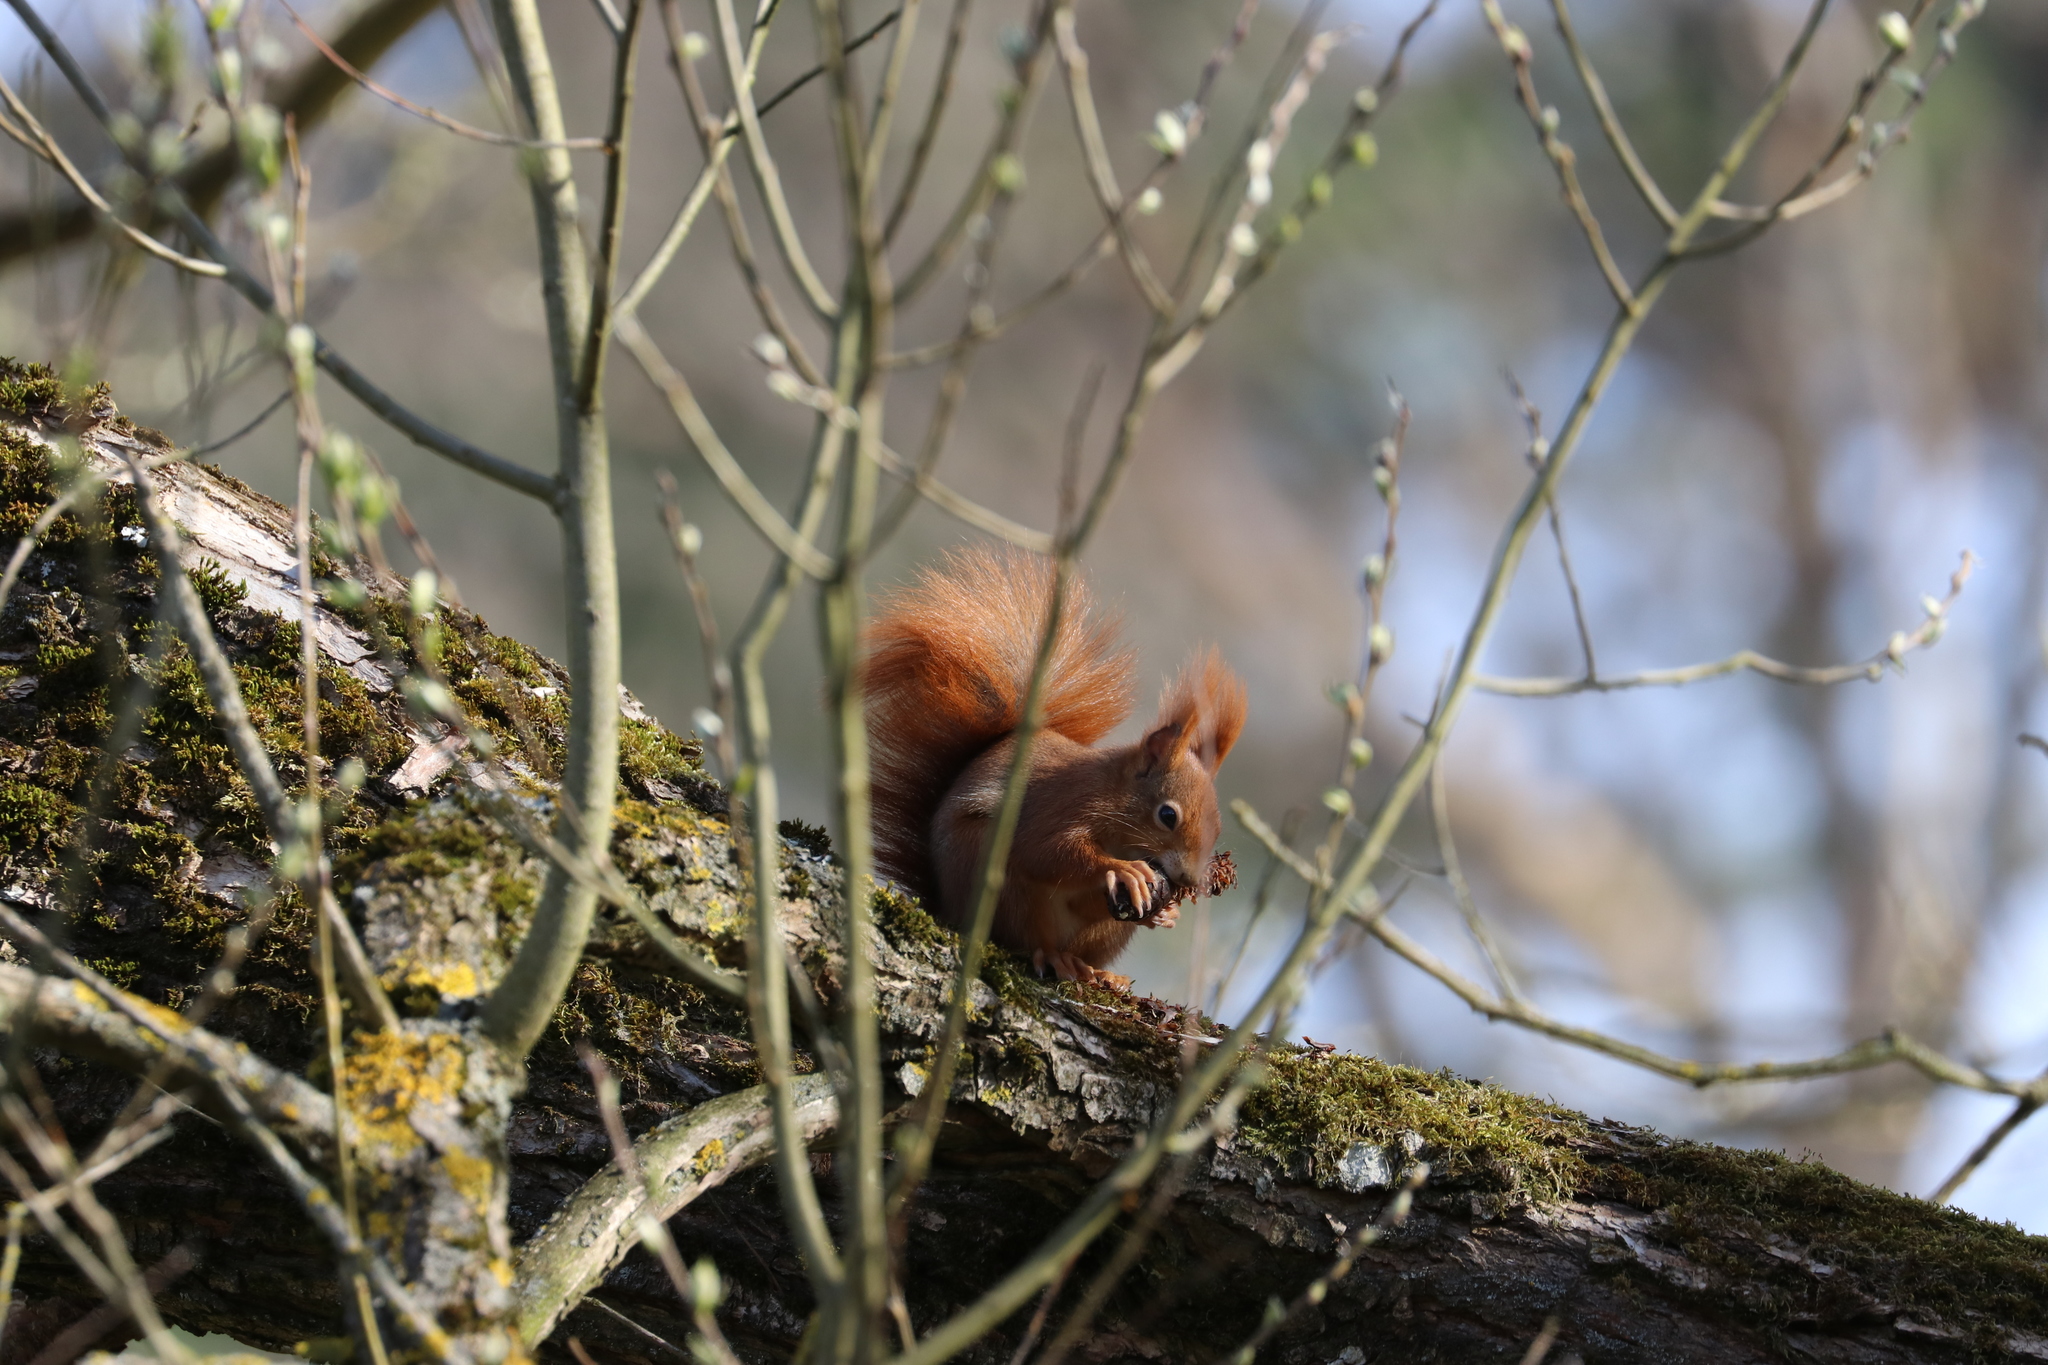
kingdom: Animalia
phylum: Chordata
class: Mammalia
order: Rodentia
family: Sciuridae
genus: Sciurus
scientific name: Sciurus vulgaris
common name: Eurasian red squirrel
